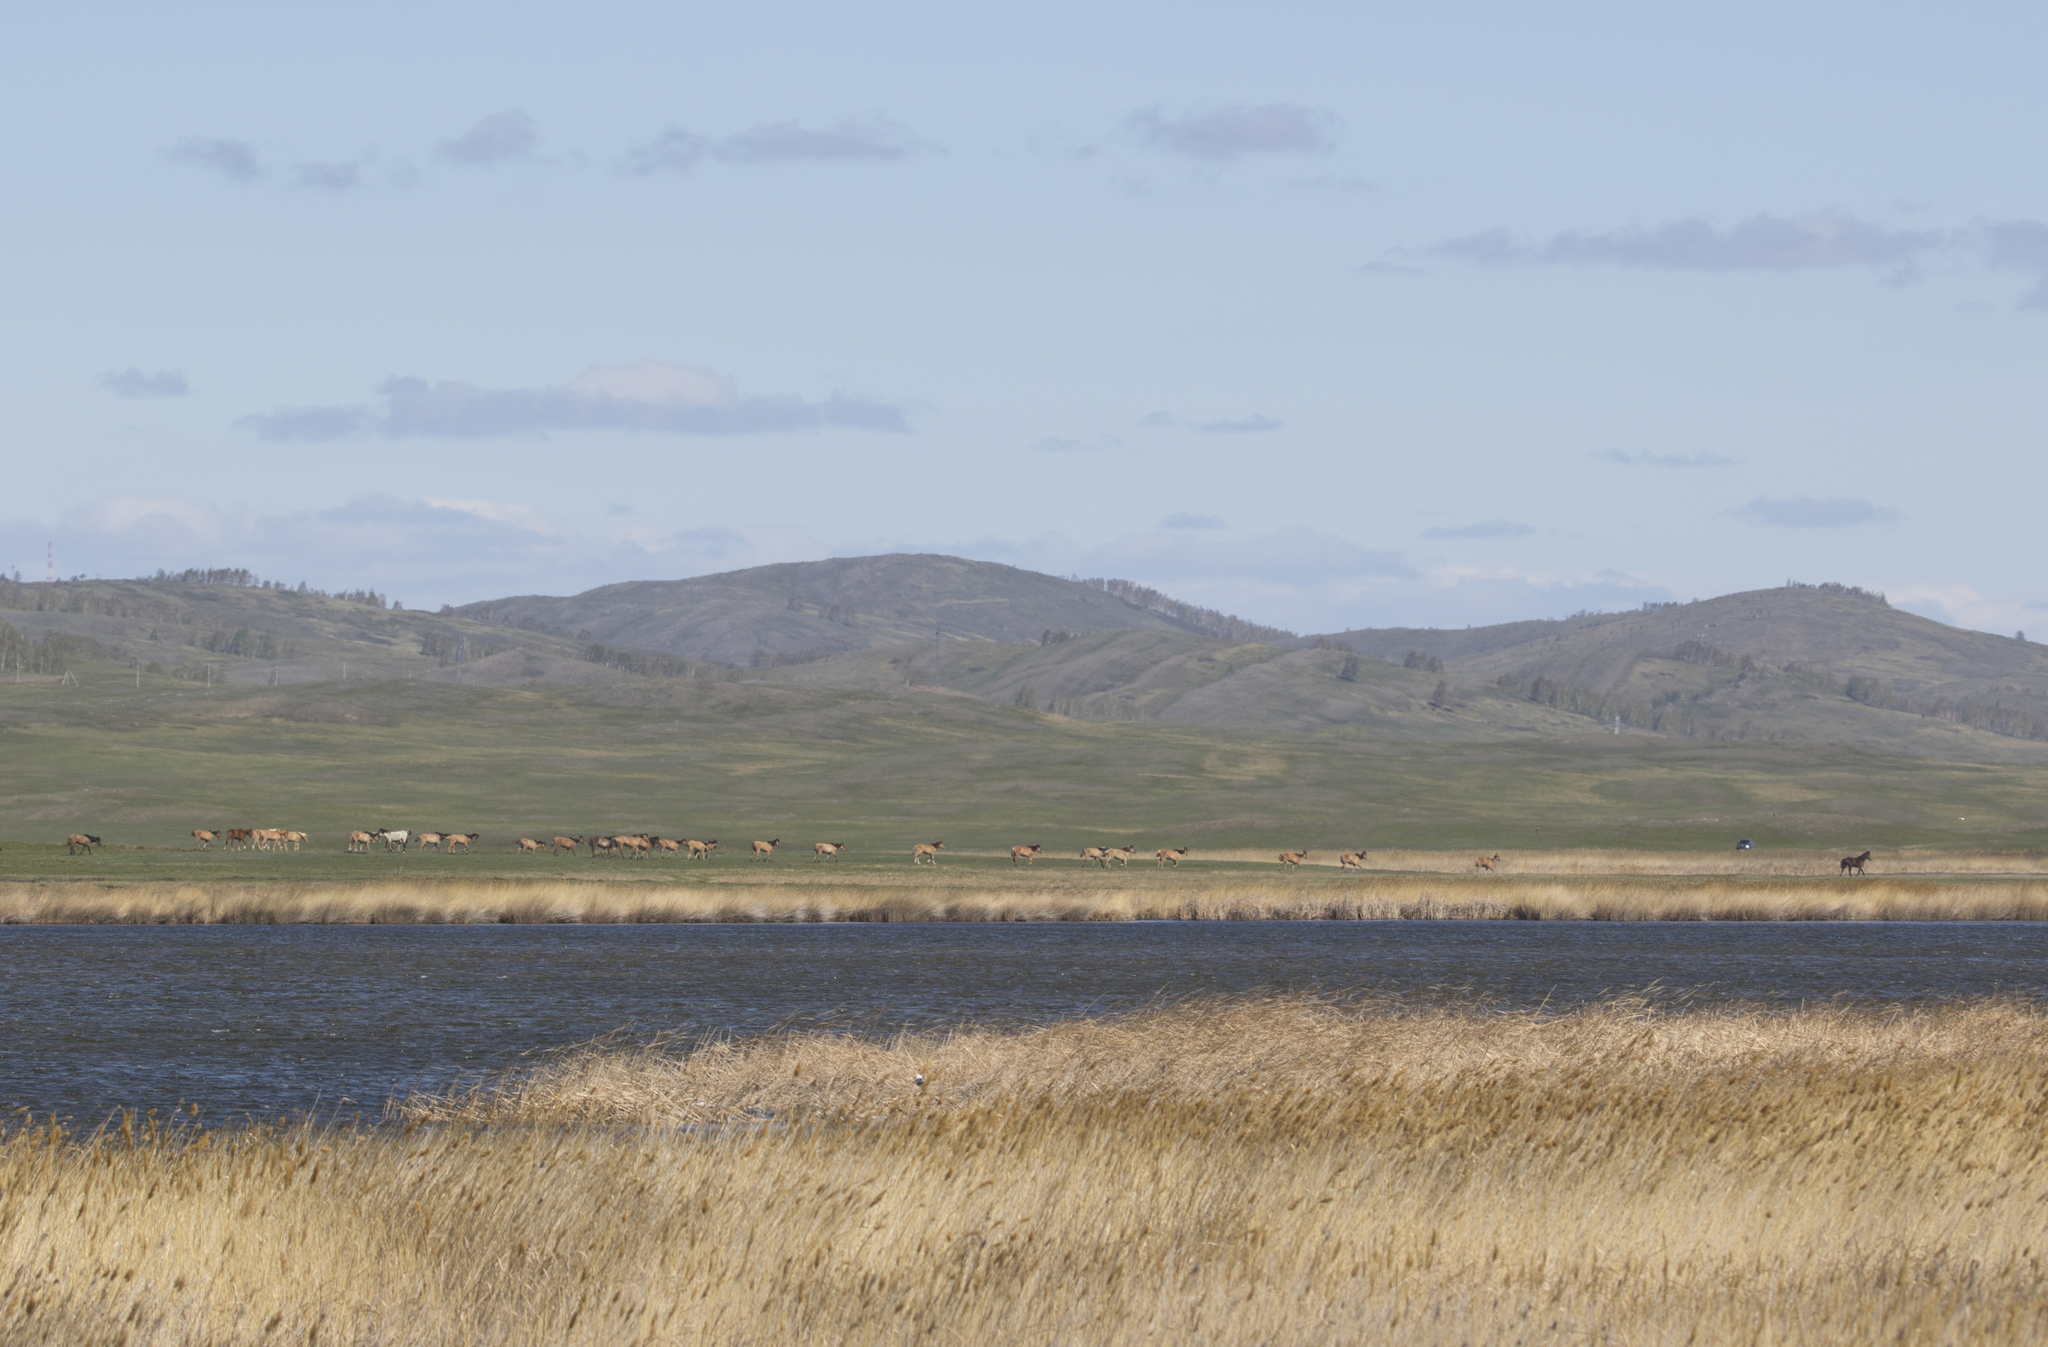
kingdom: Animalia
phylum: Chordata
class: Mammalia
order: Perissodactyla
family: Equidae
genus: Equus
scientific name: Equus caballus
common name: Horse
